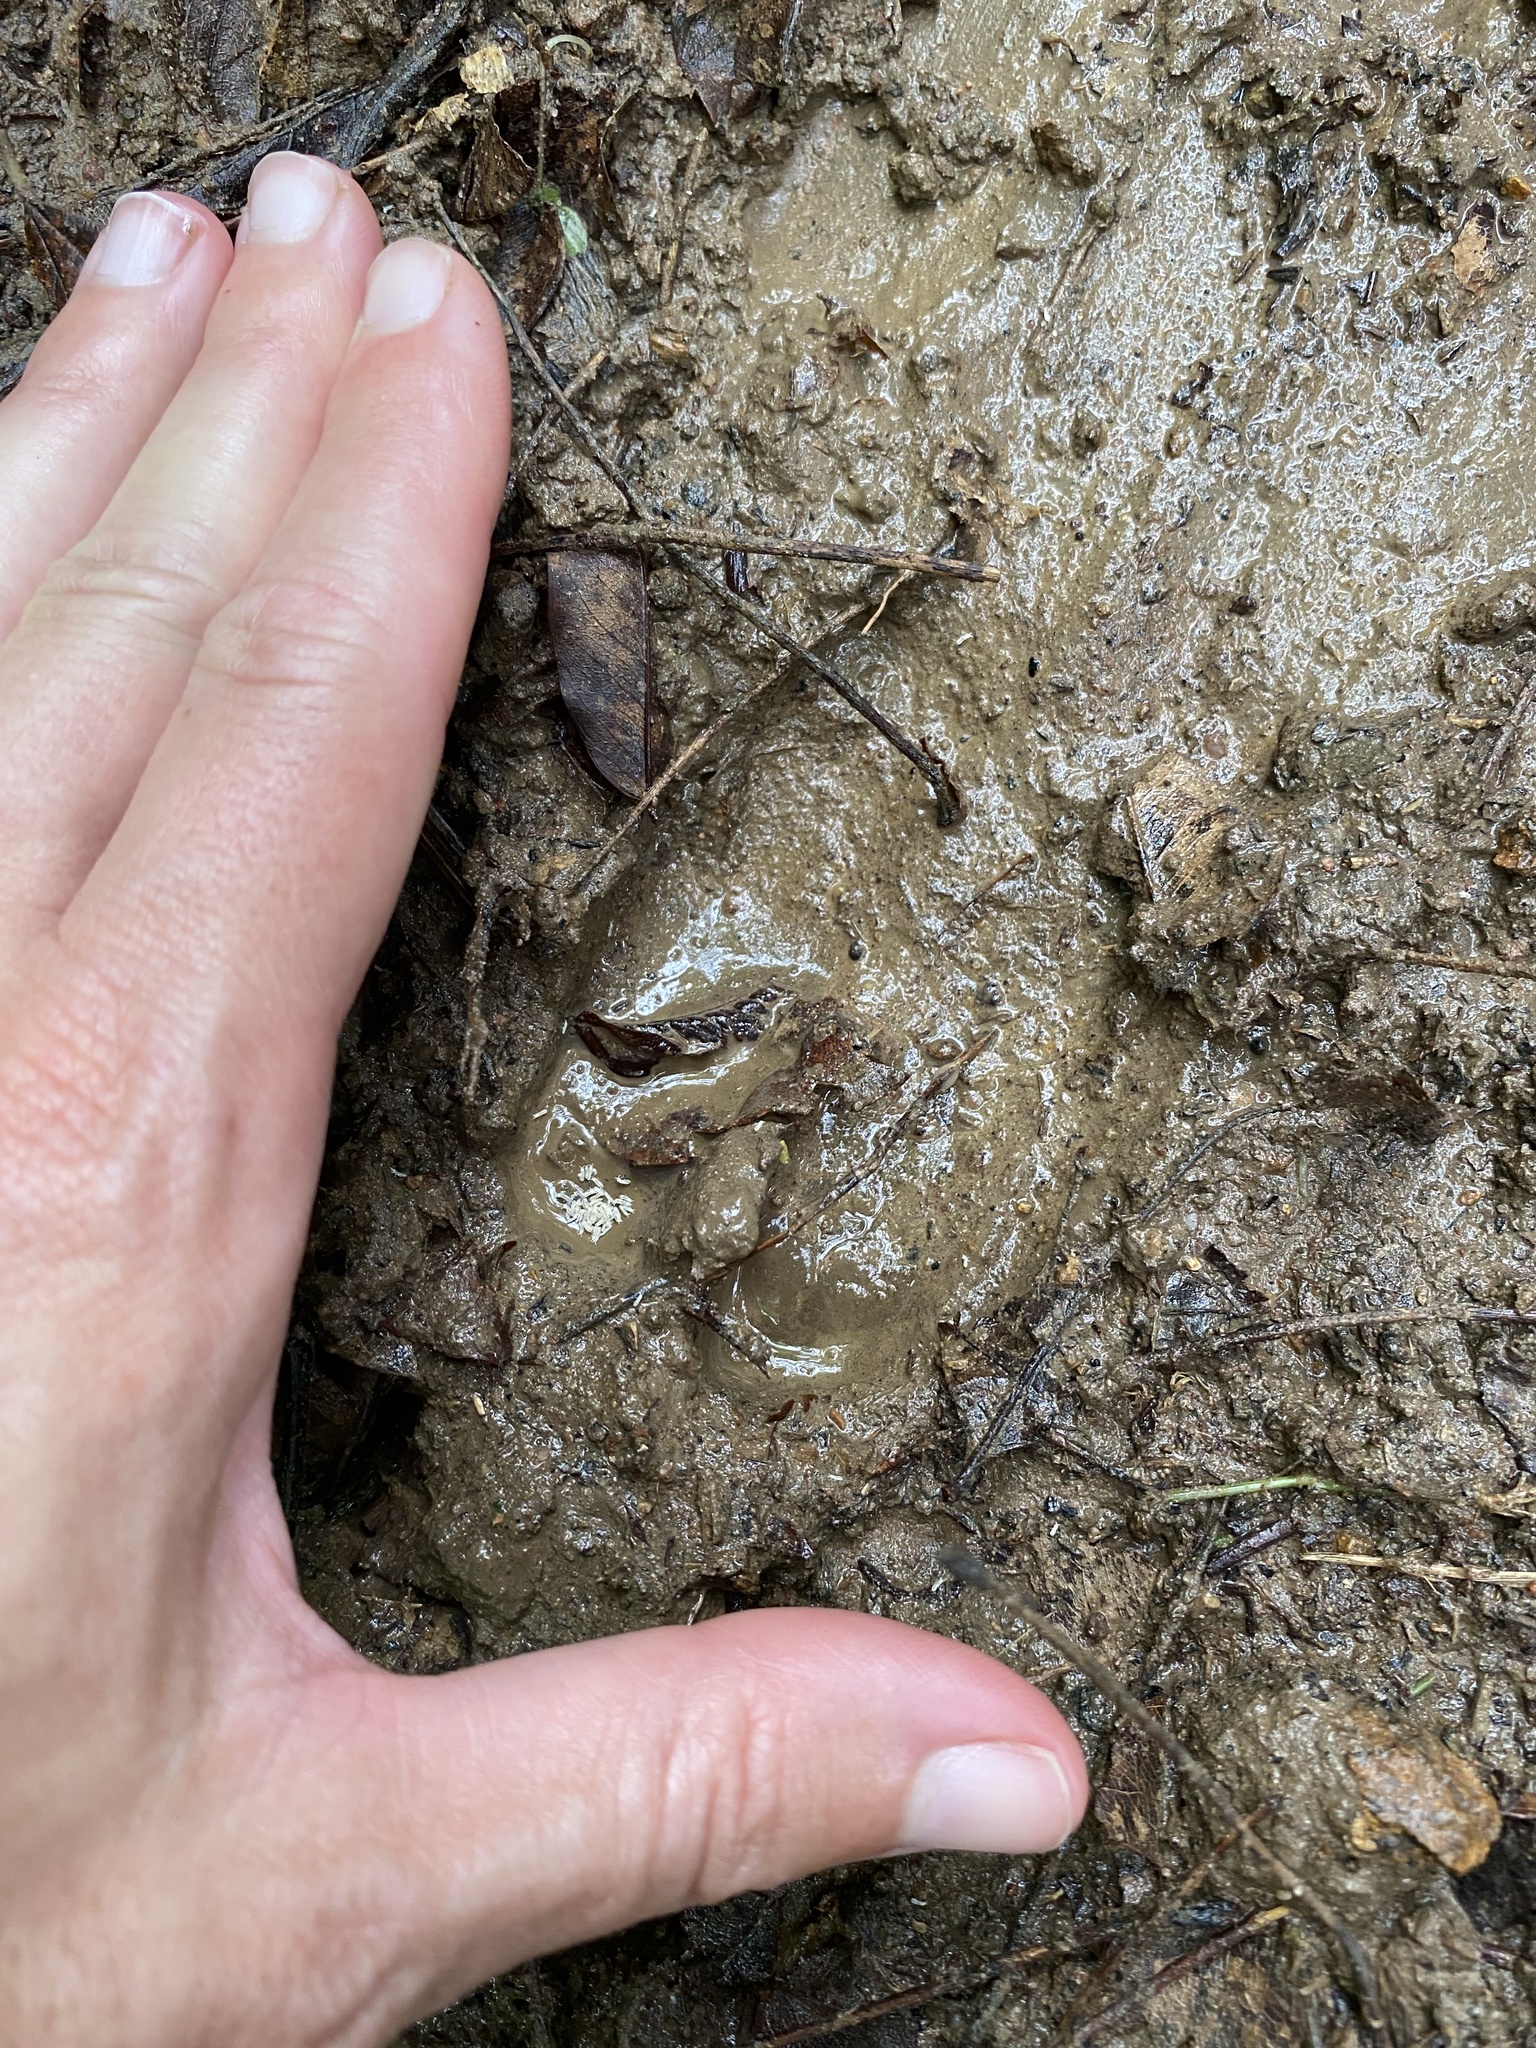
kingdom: Animalia
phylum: Chordata
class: Mammalia
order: Artiodactyla
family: Suidae
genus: Potamochoerus
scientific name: Potamochoerus larvatus
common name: Bushpig
